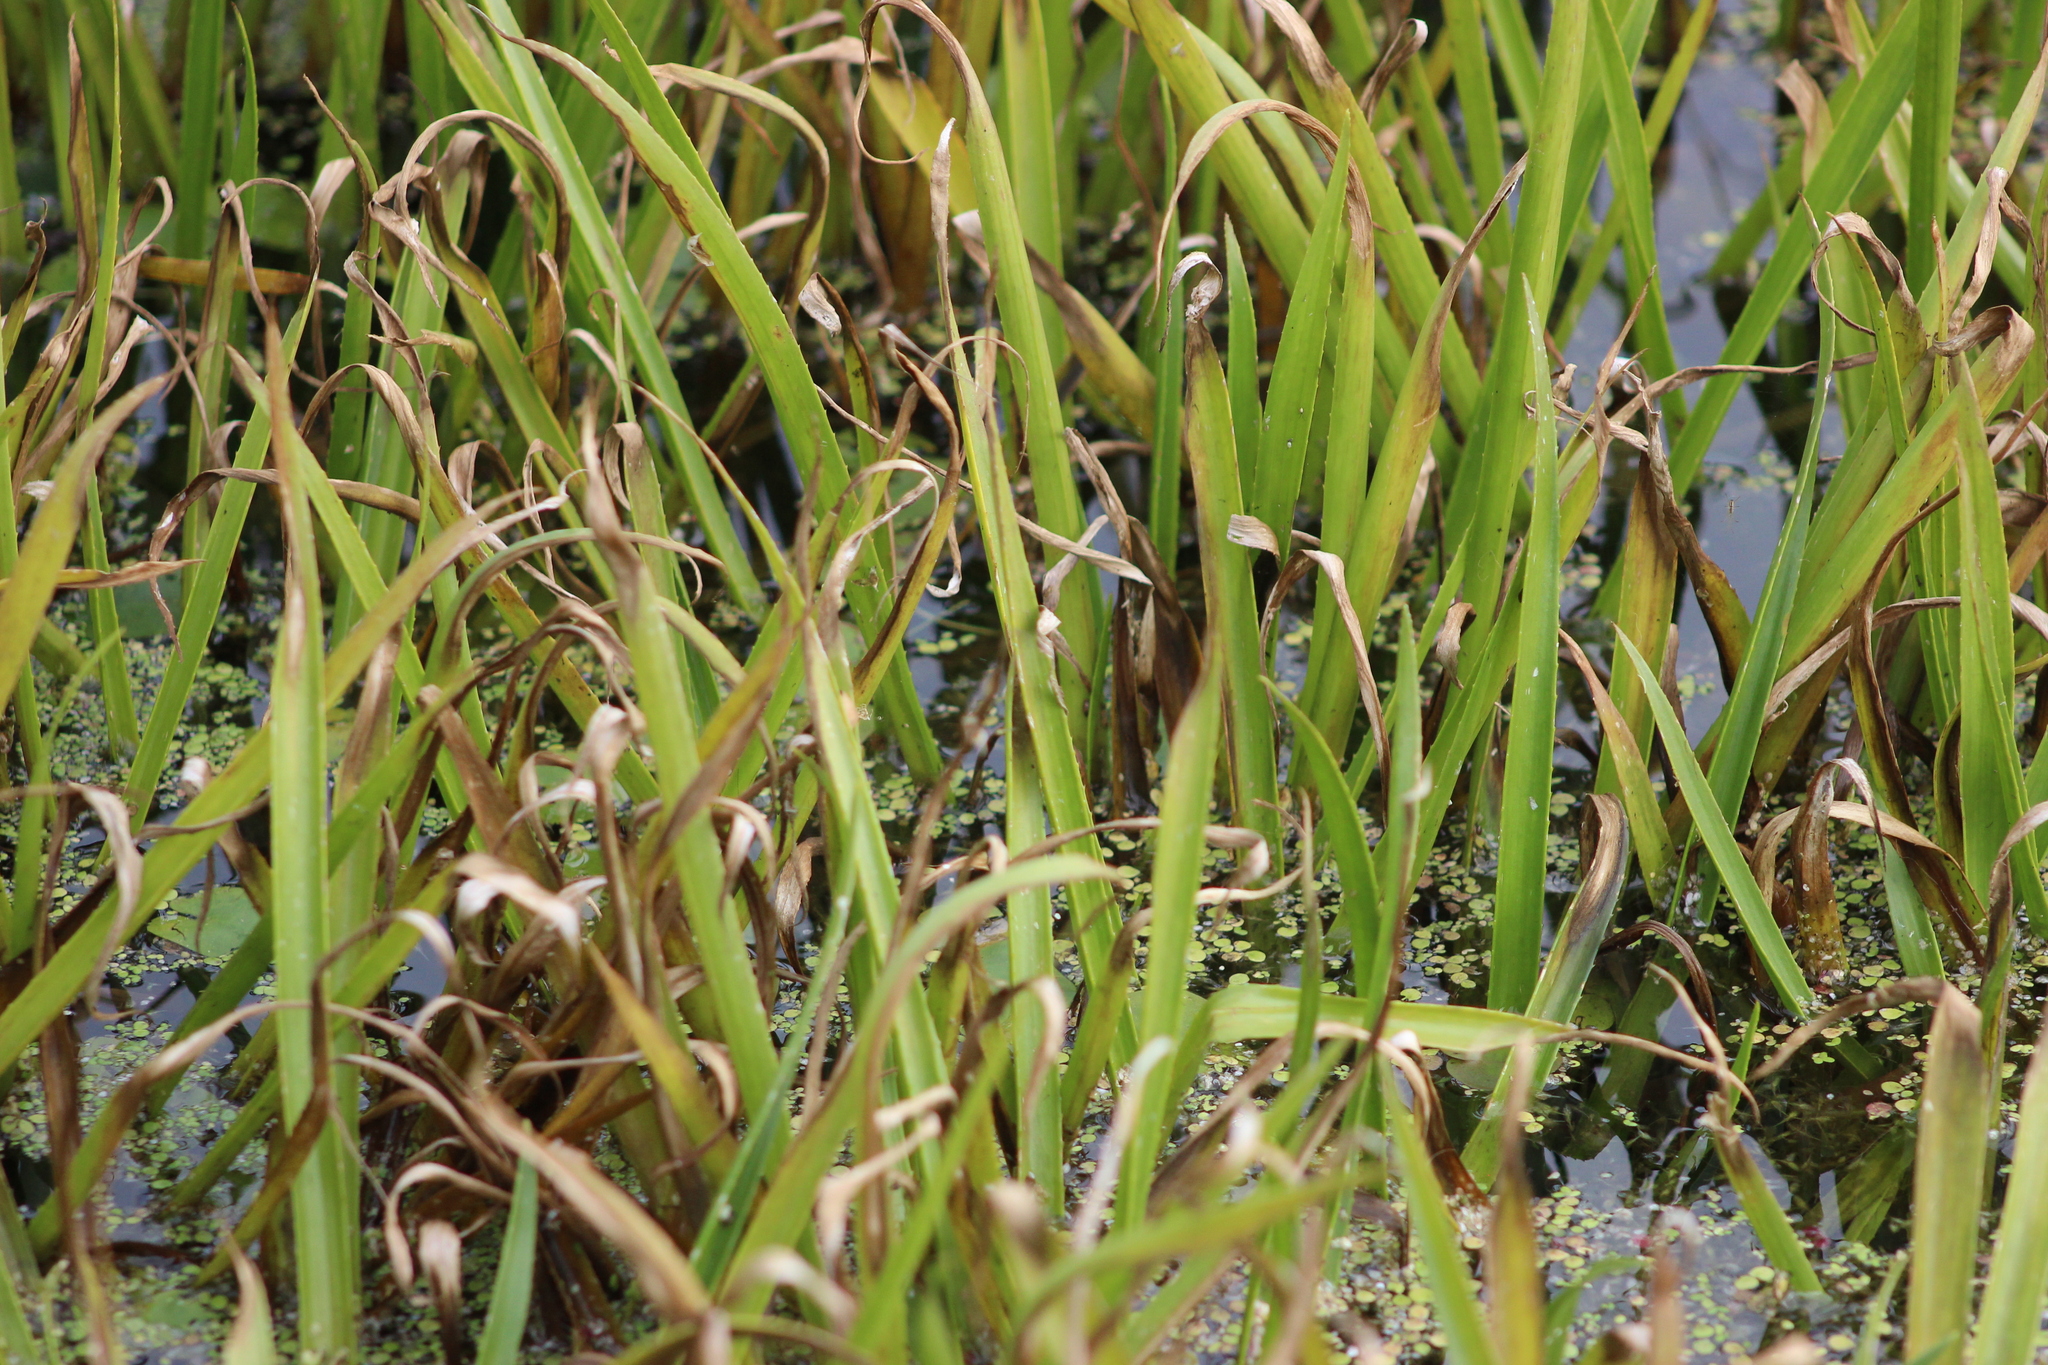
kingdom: Plantae
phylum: Tracheophyta
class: Liliopsida
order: Alismatales
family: Hydrocharitaceae
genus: Stratiotes
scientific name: Stratiotes aloides
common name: Water-soldier
